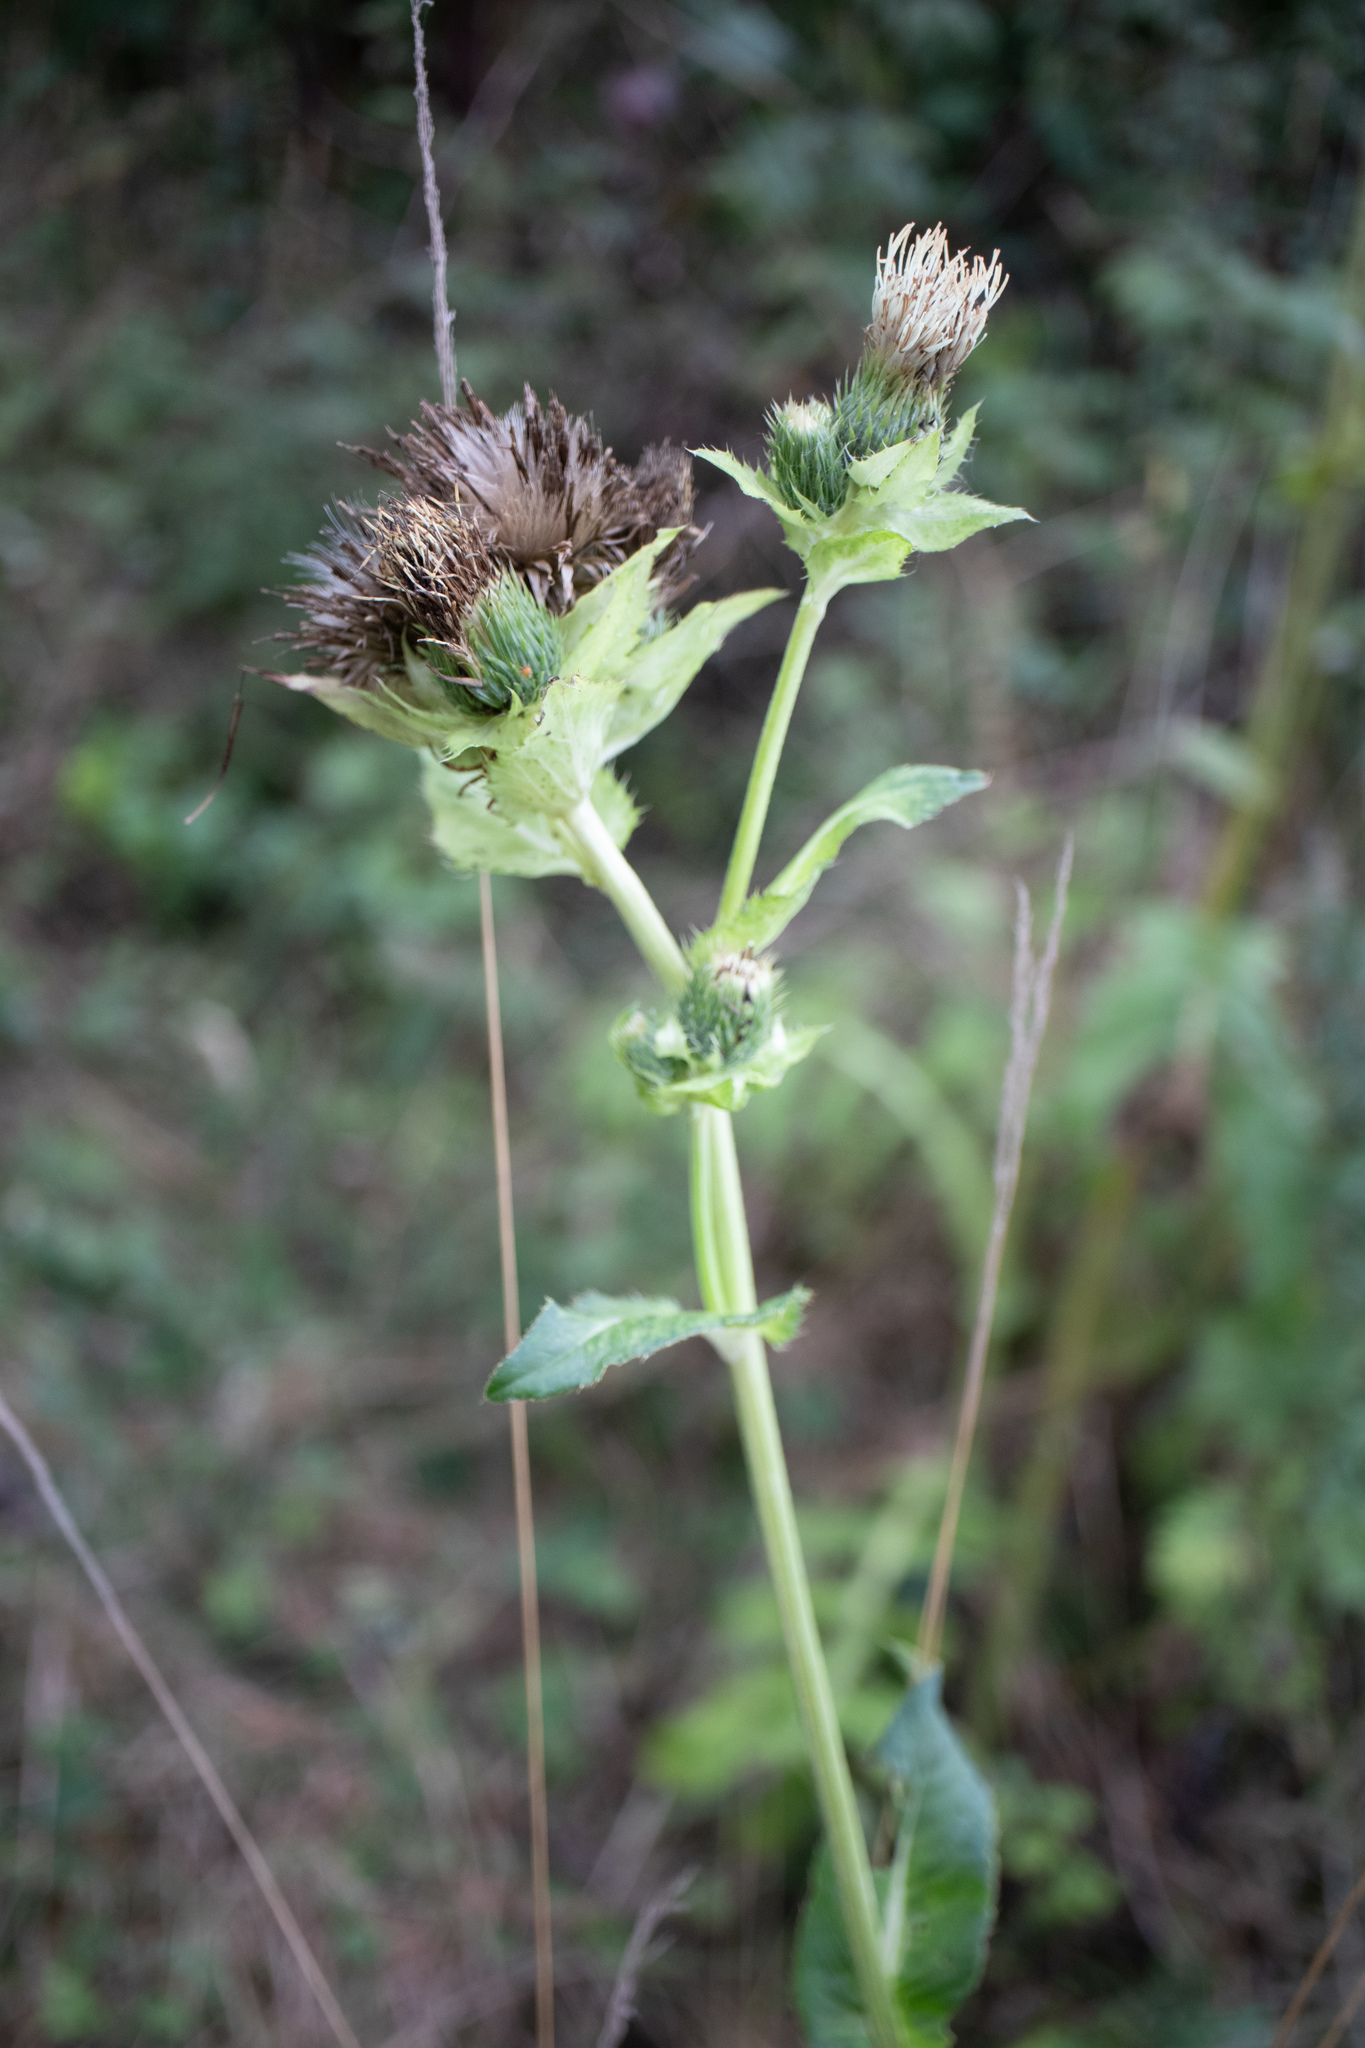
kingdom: Plantae
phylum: Tracheophyta
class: Magnoliopsida
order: Asterales
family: Asteraceae
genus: Cirsium
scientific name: Cirsium oleraceum
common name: Cabbage thistle
